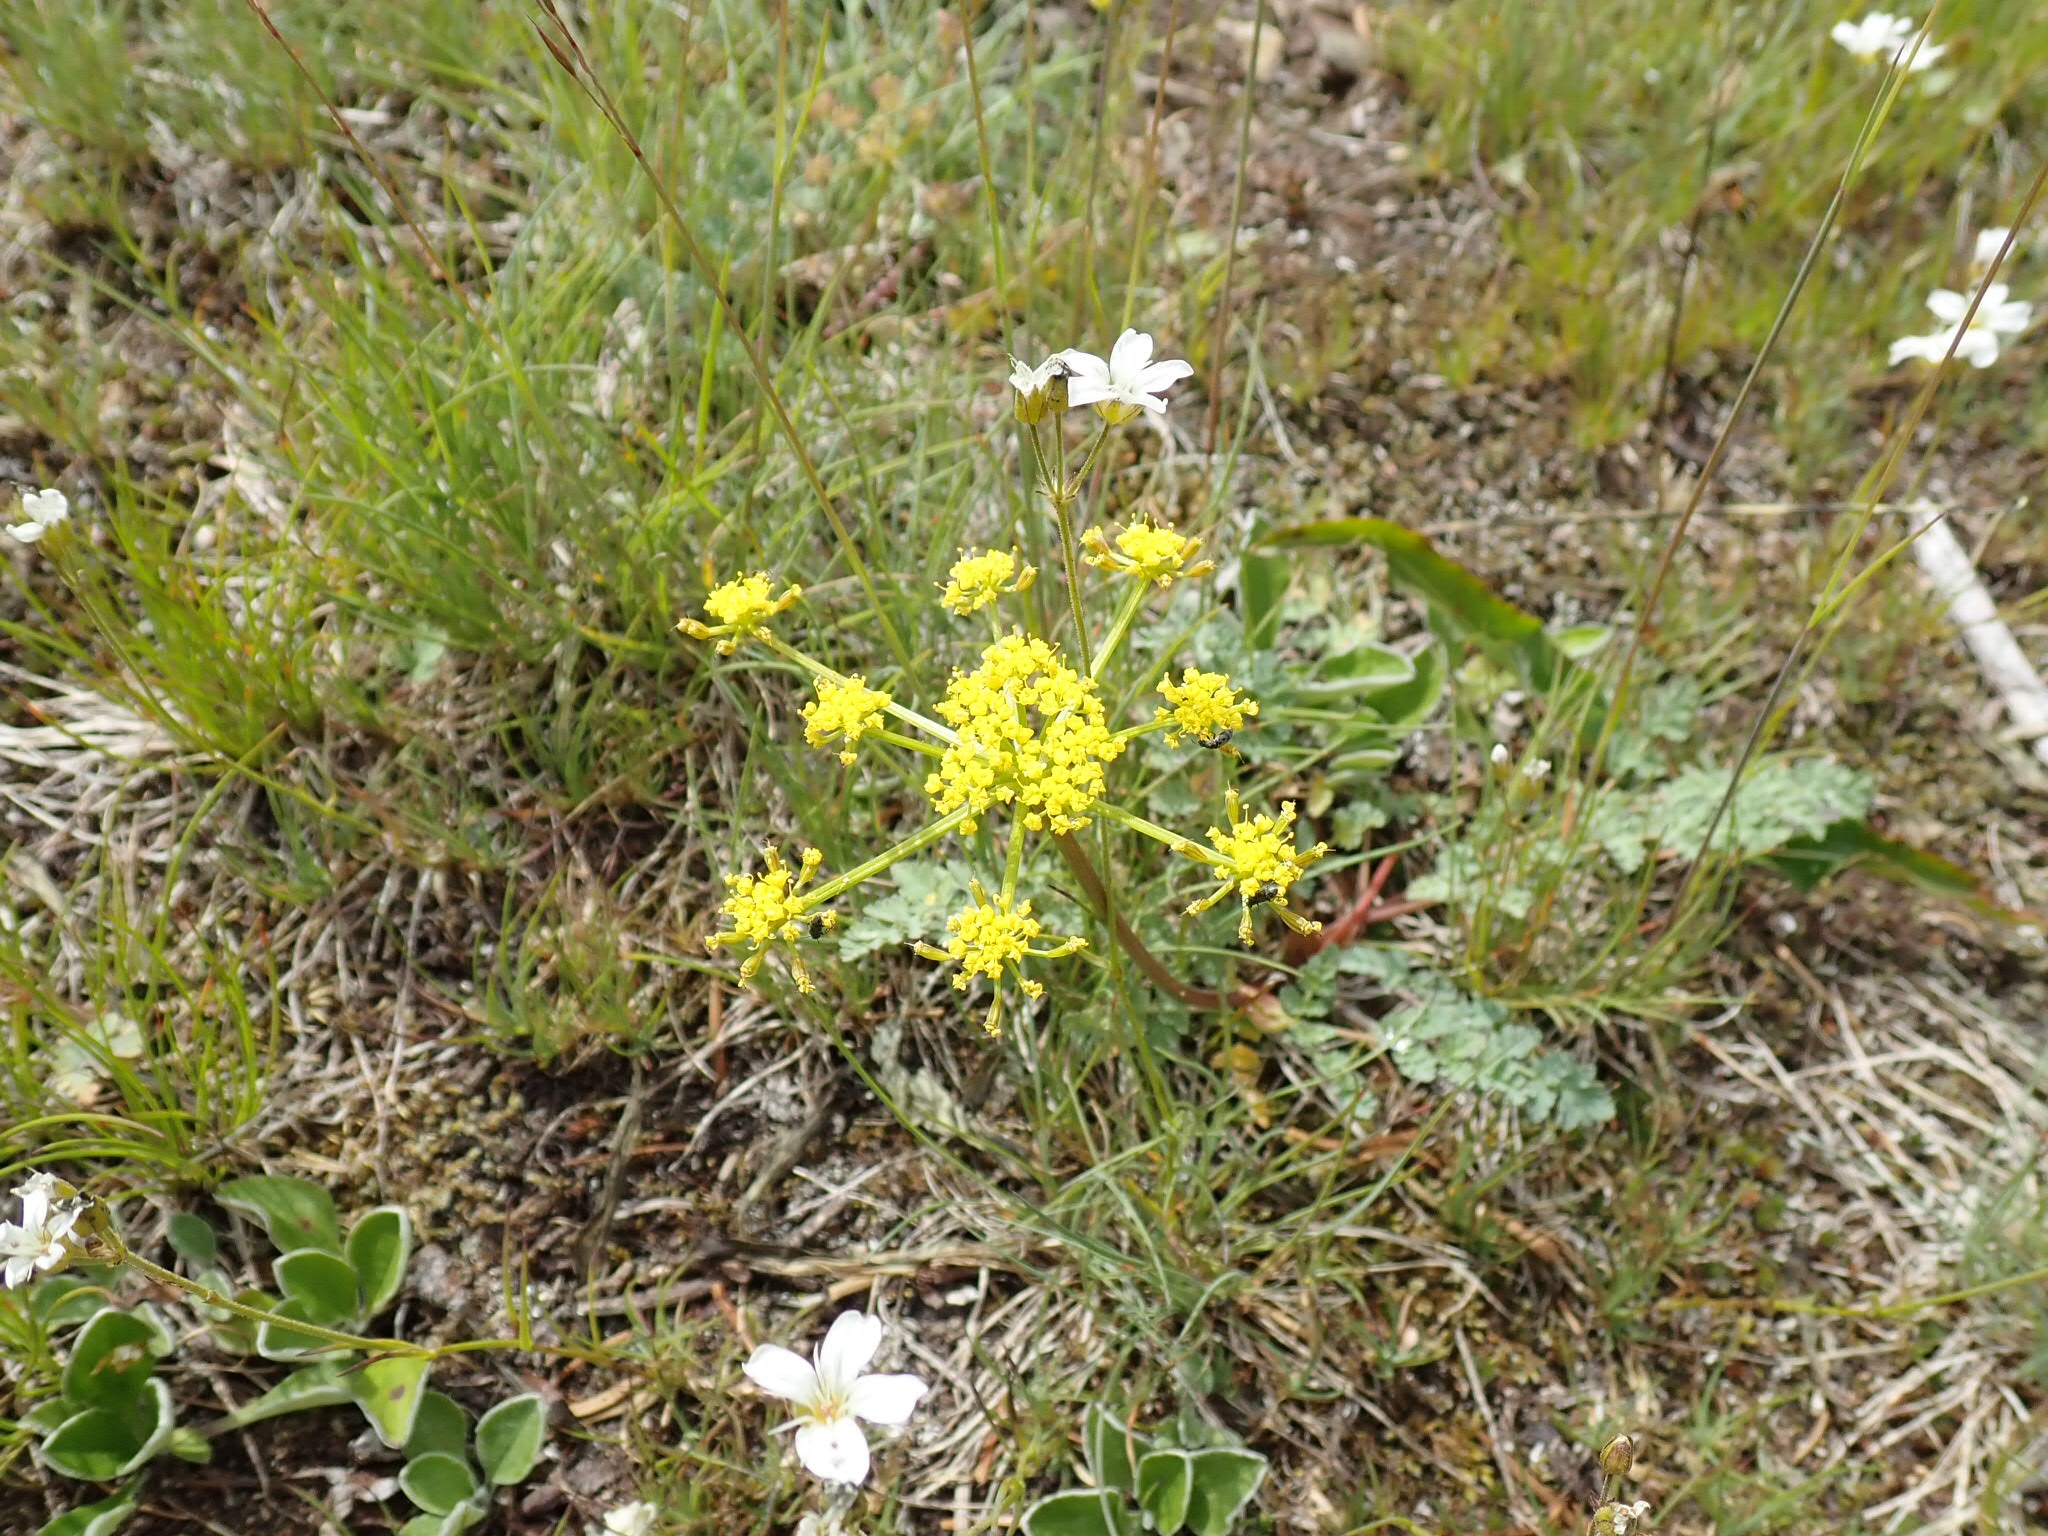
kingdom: Plantae
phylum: Tracheophyta
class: Magnoliopsida
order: Apiales
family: Apiaceae
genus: Lomatium
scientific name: Lomatium martindalei
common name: Cascade desert-parsley
